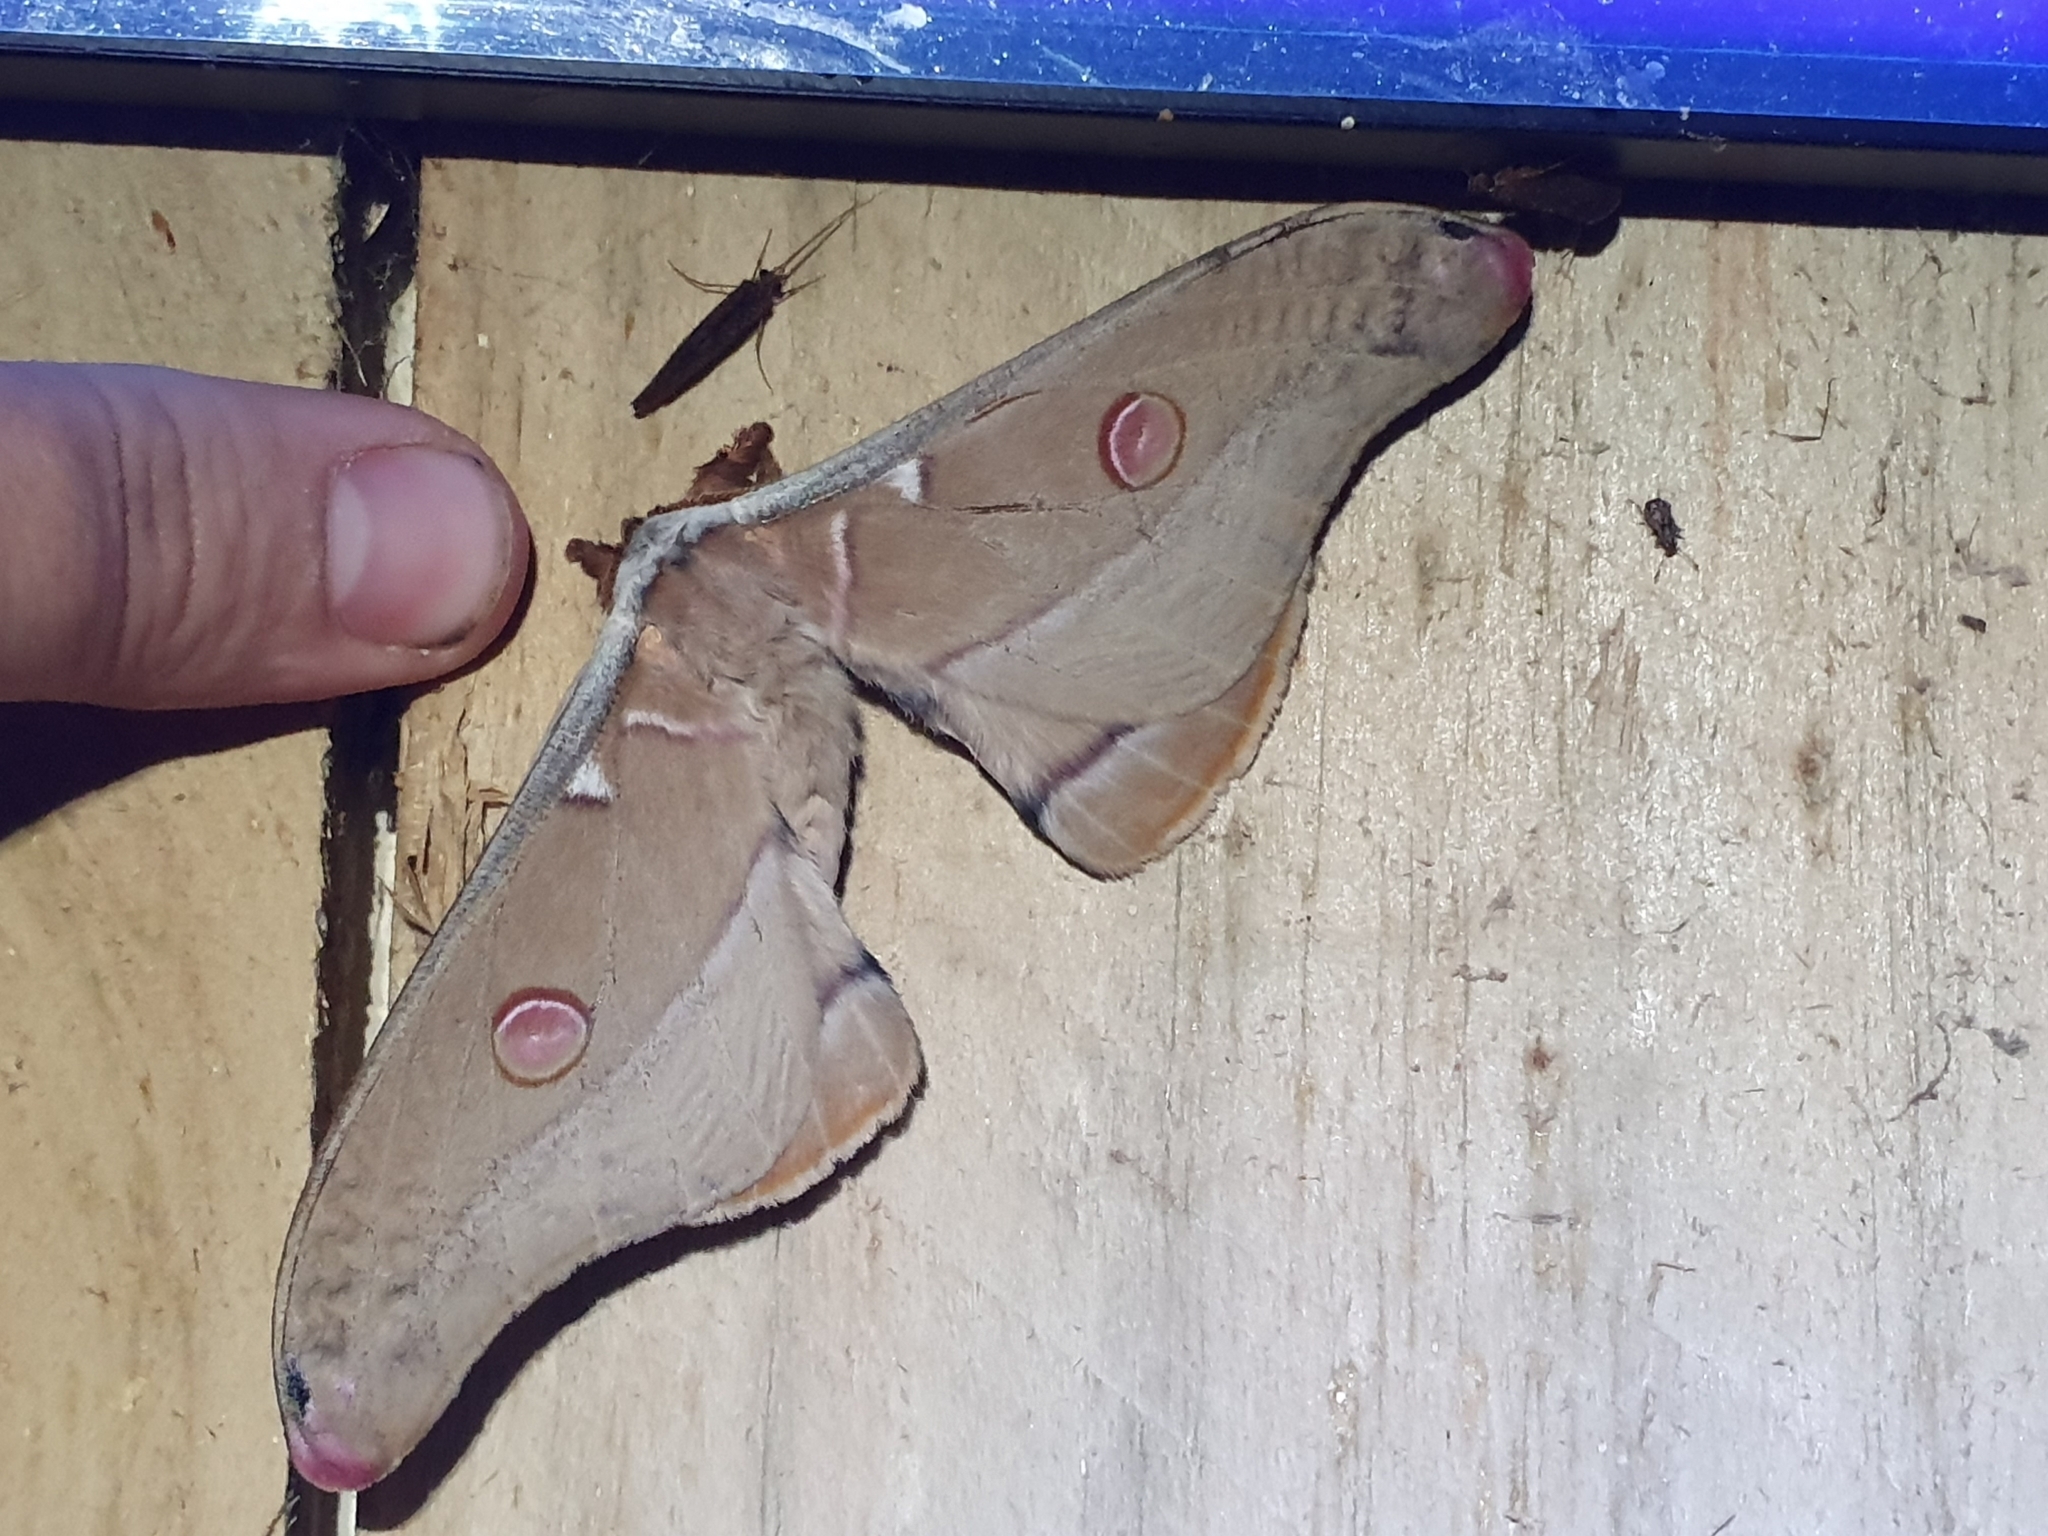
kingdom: Animalia
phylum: Arthropoda
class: Insecta
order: Lepidoptera
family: Saturniidae
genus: Opodiphthera
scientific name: Opodiphthera
